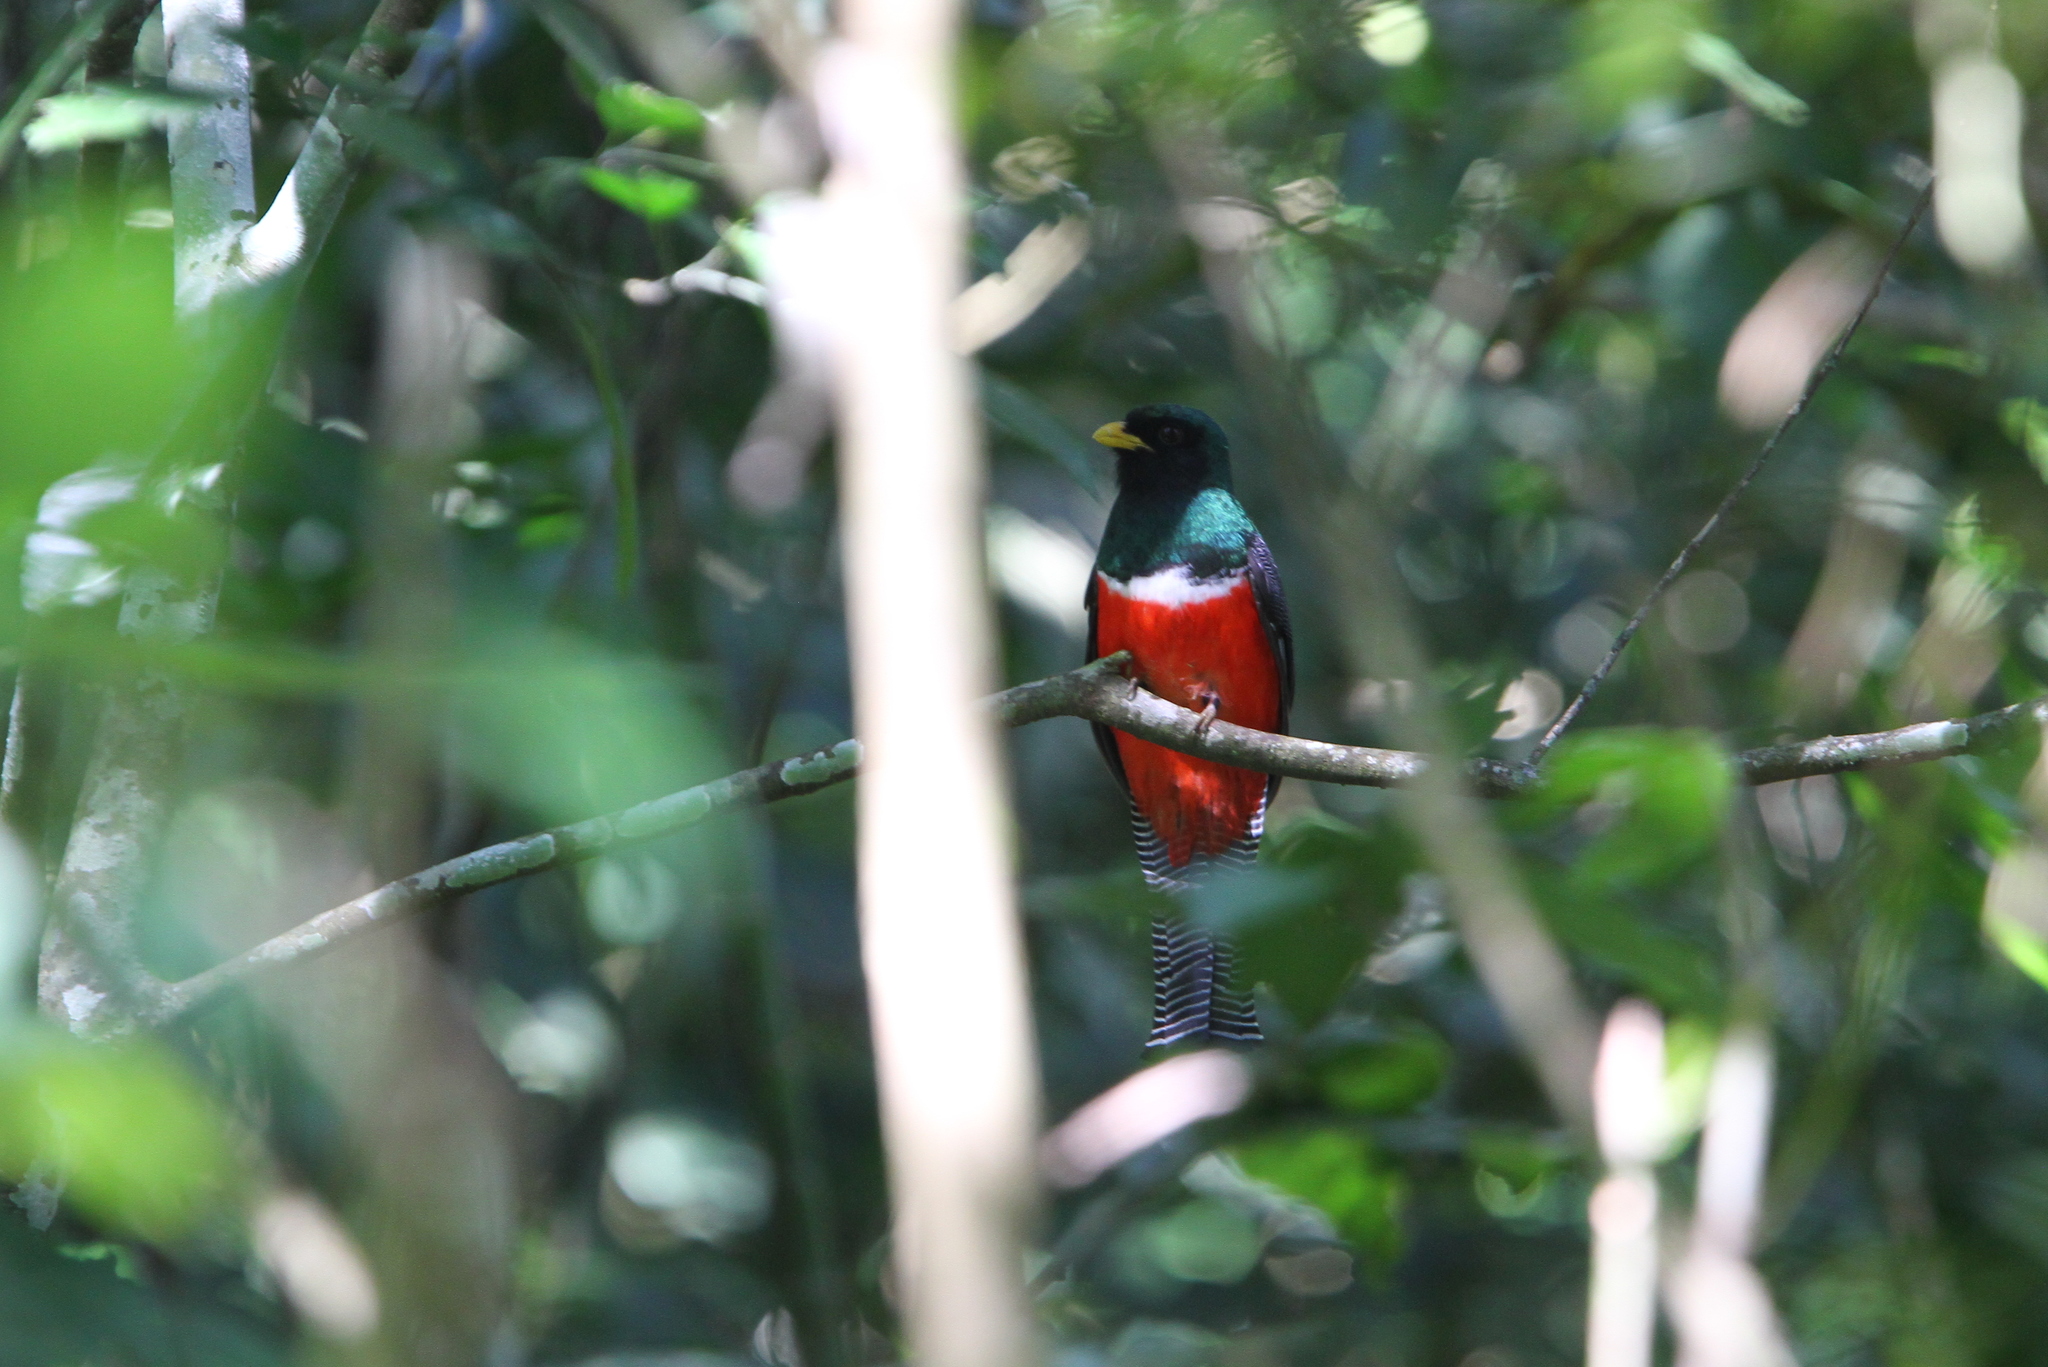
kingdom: Animalia
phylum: Chordata
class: Aves
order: Trogoniformes
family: Trogonidae
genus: Trogon
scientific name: Trogon collaris
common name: Collared trogon
